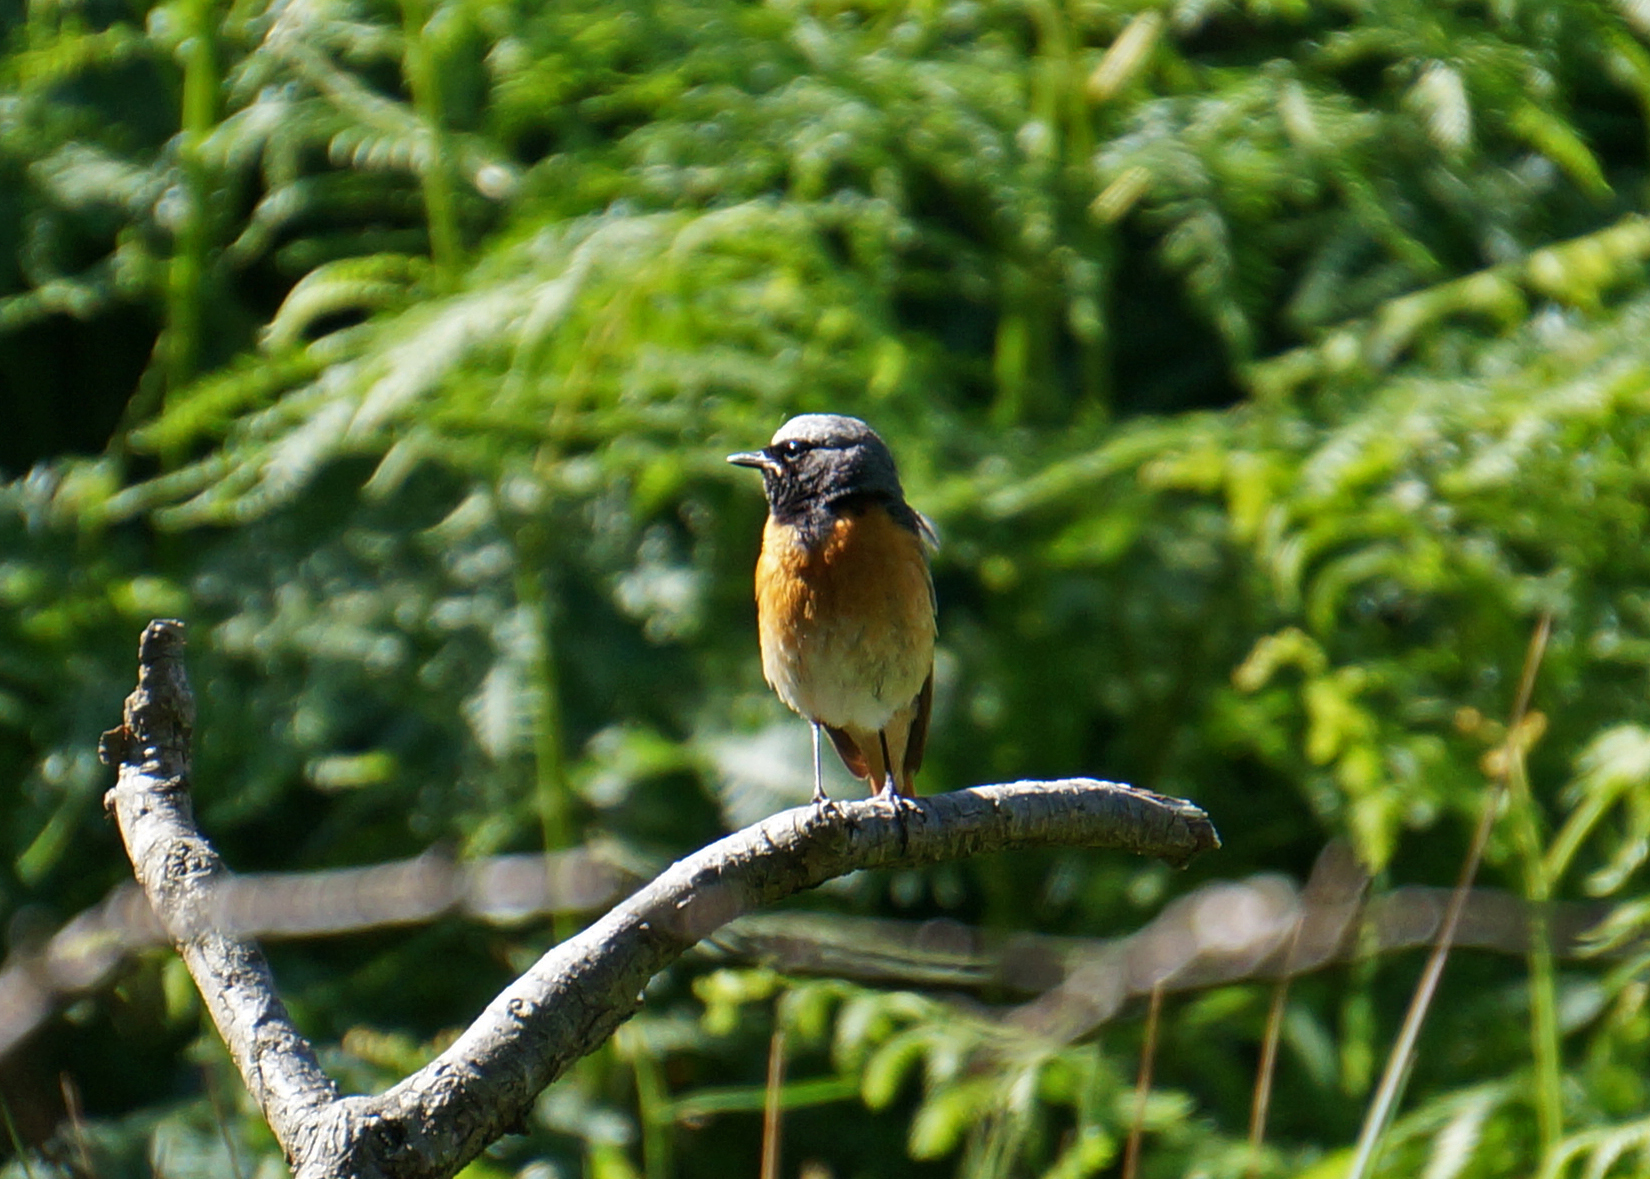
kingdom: Animalia
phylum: Chordata
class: Aves
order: Passeriformes
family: Muscicapidae
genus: Phoenicurus
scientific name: Phoenicurus phoenicurus
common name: Common redstart
